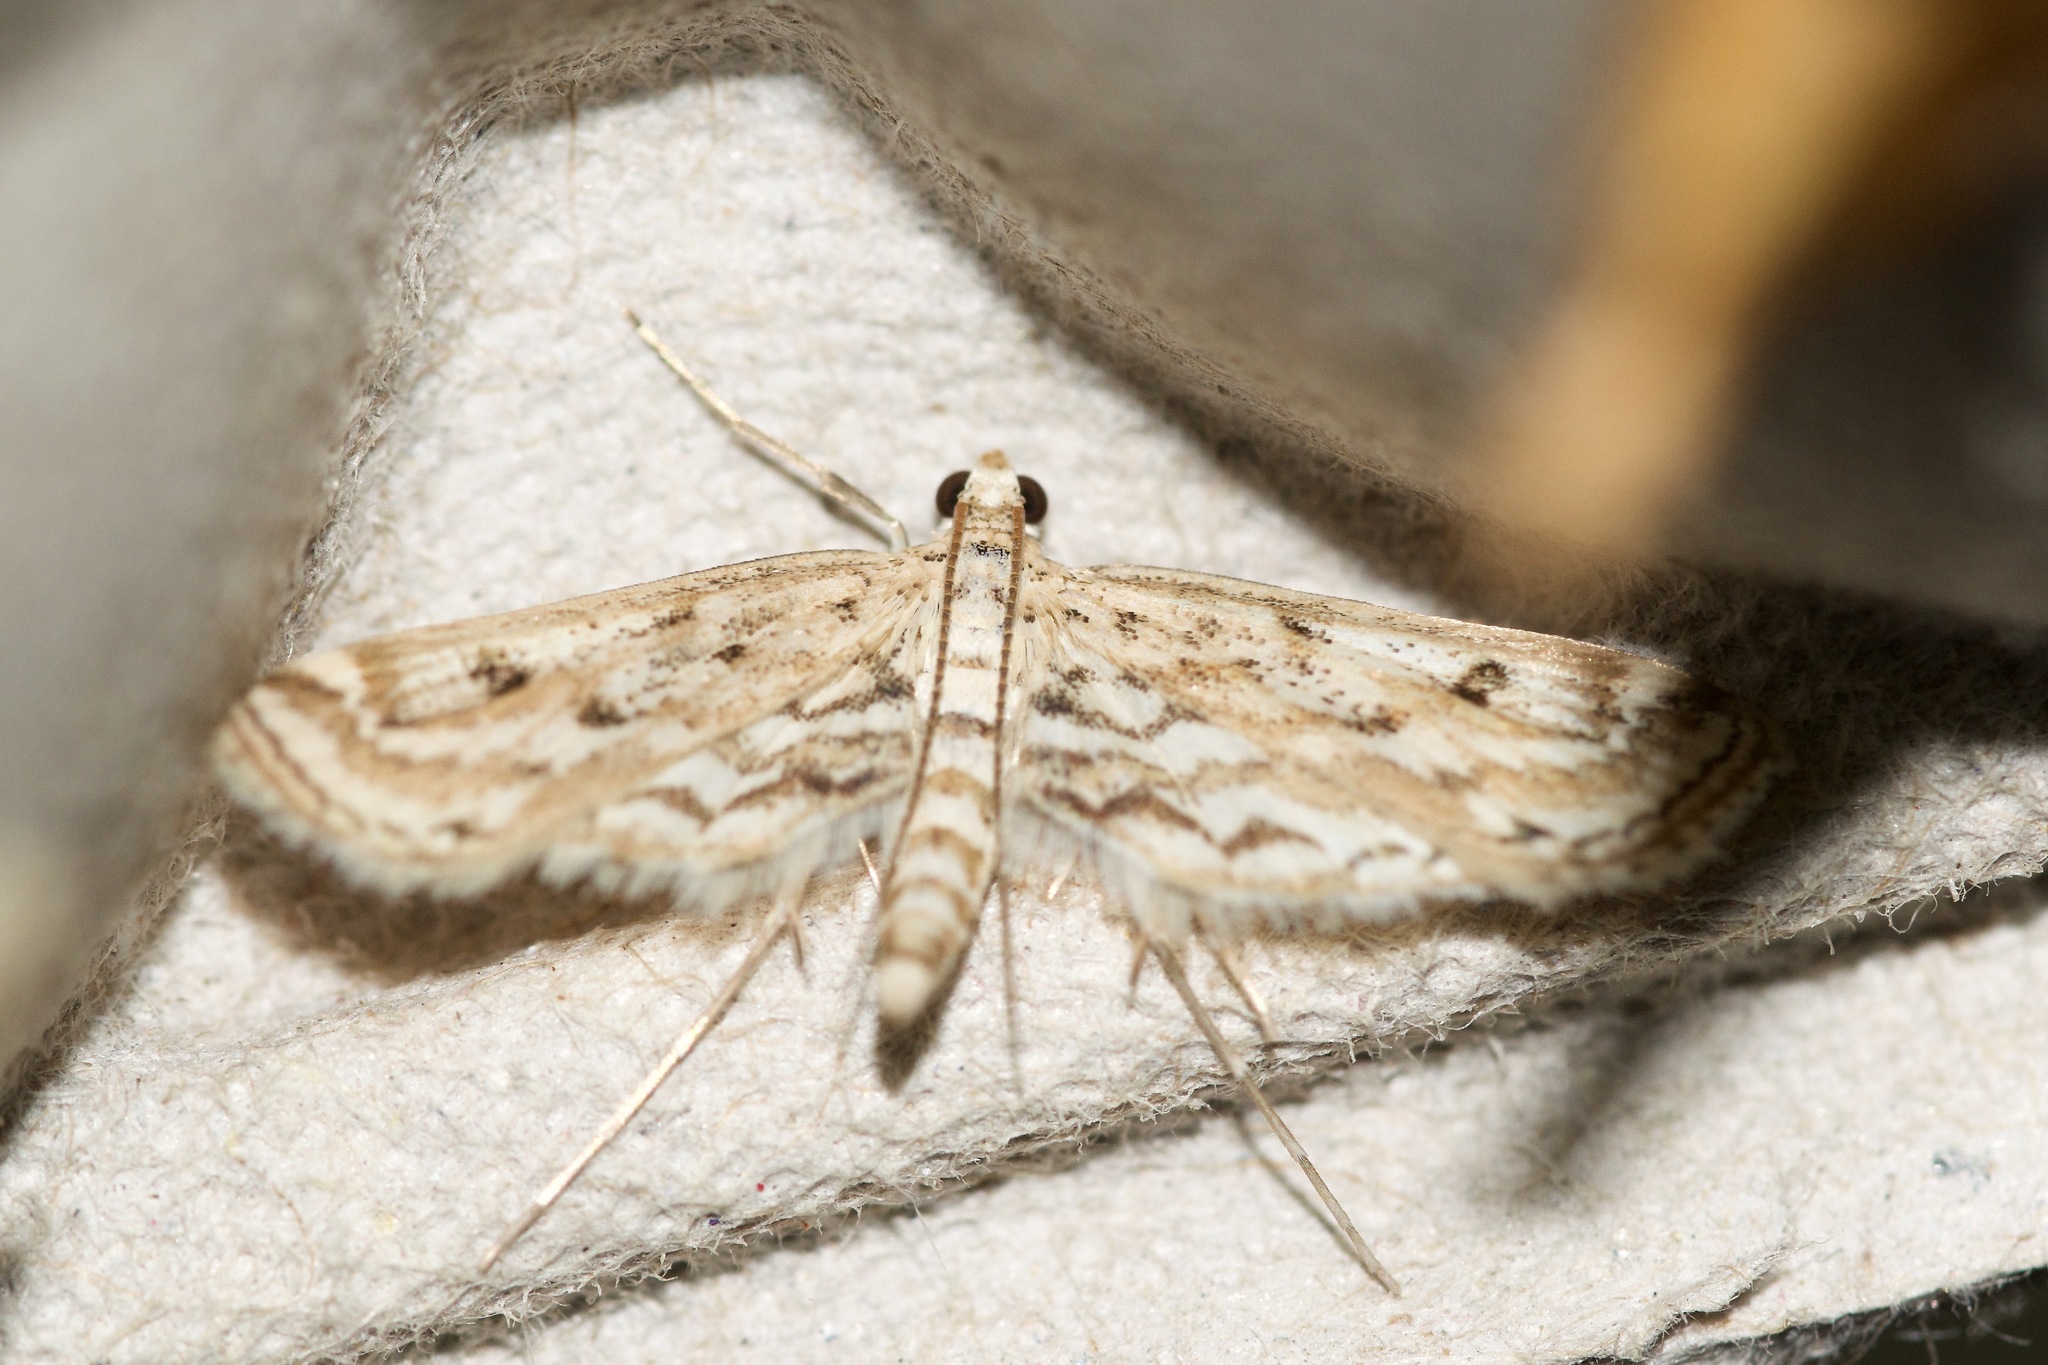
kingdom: Animalia
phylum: Arthropoda
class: Insecta
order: Lepidoptera
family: Crambidae
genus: Parapoynx
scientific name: Parapoynx allionealis
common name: Bladderwort casemaker
